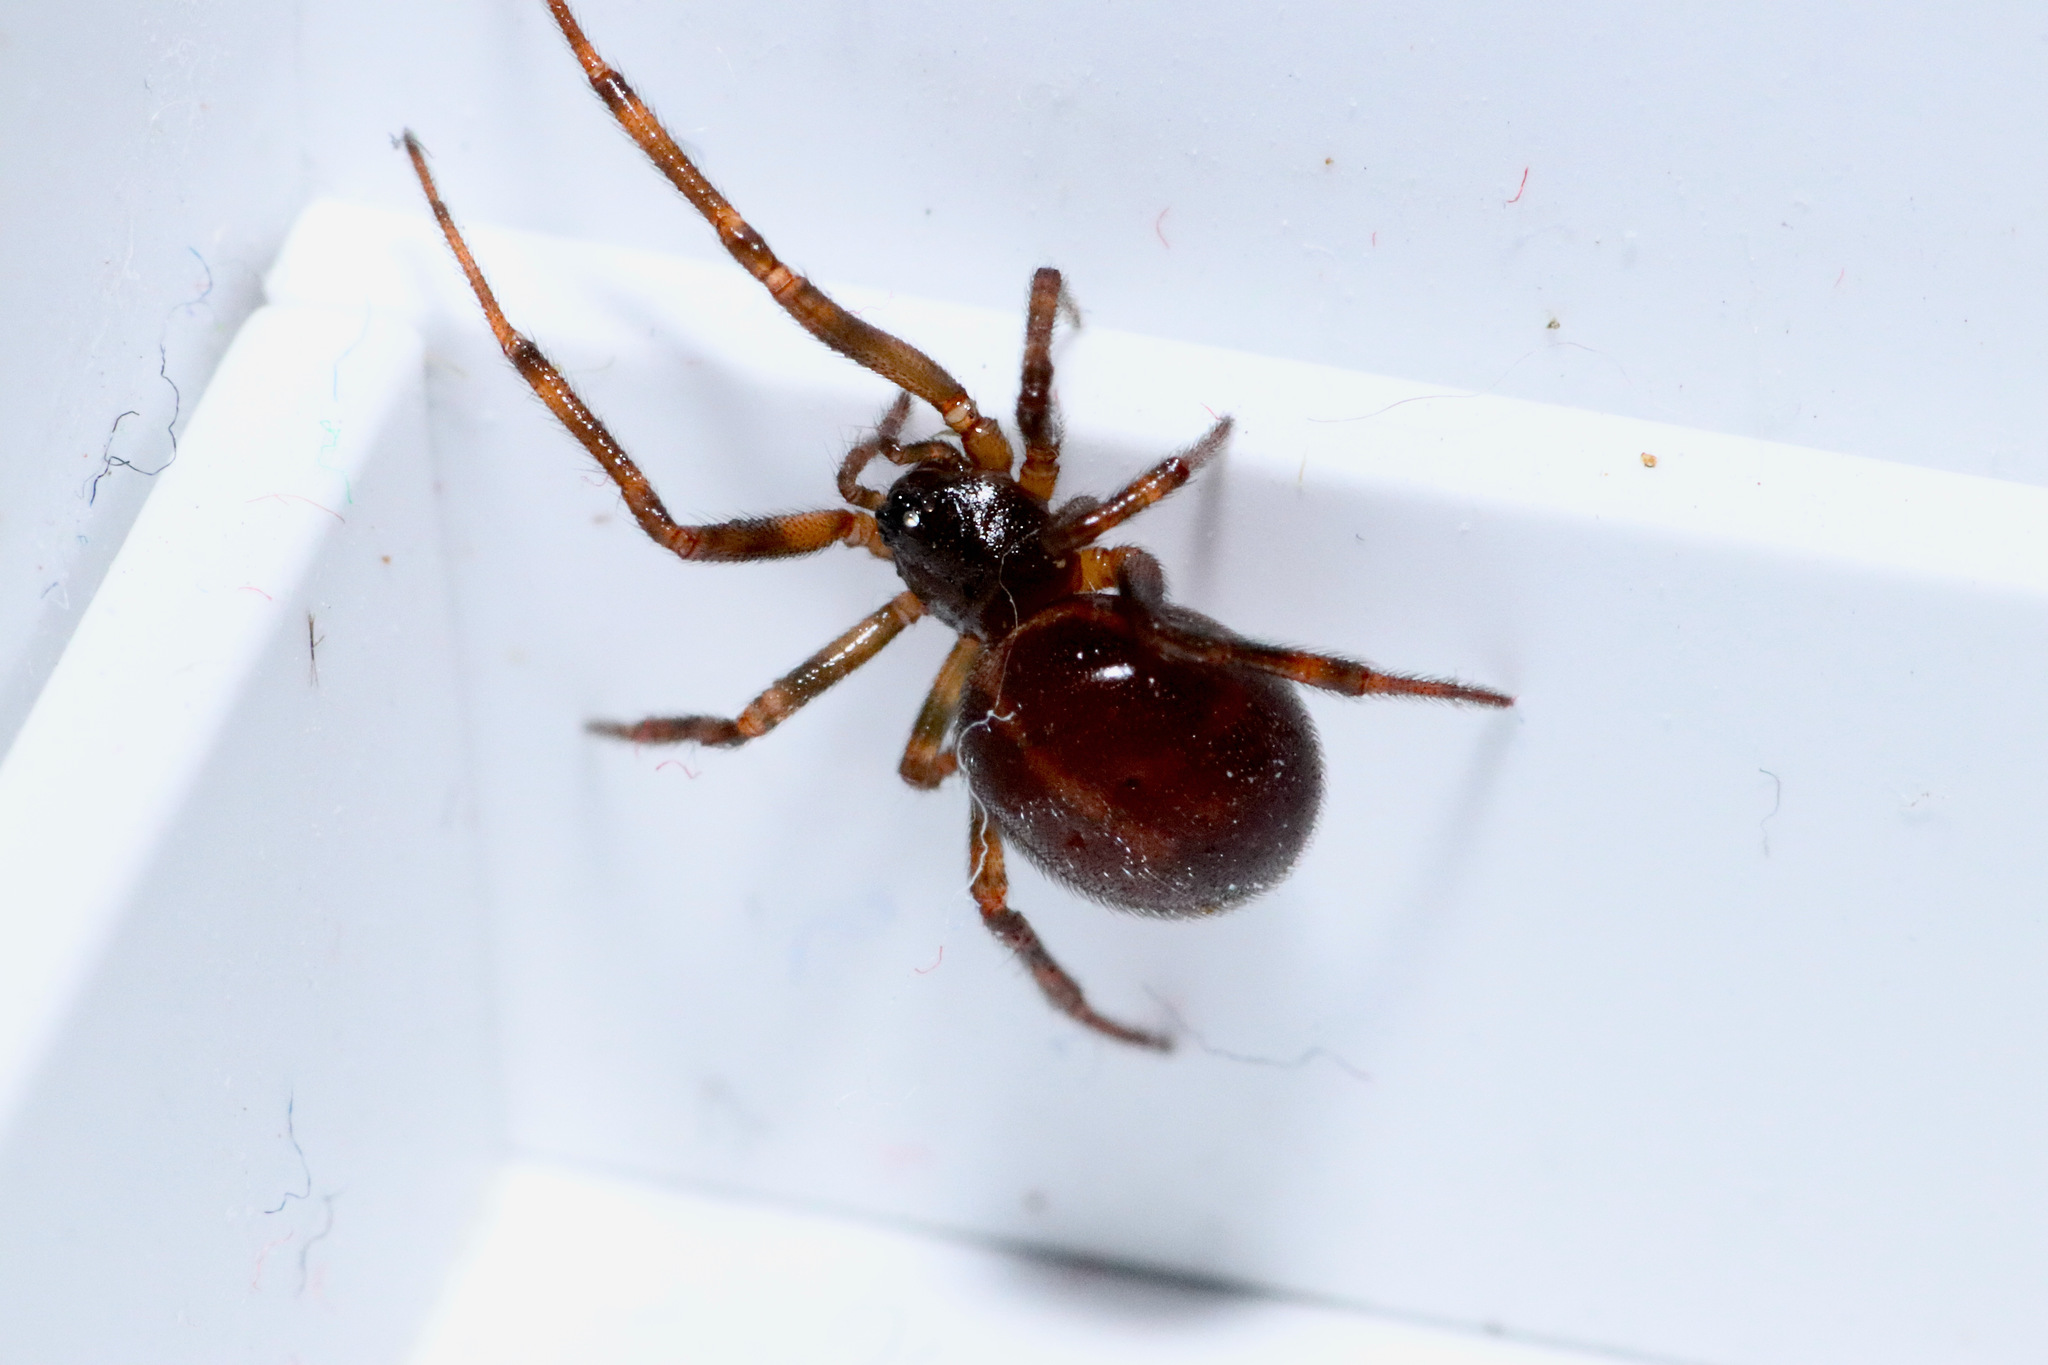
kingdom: Animalia
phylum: Arthropoda
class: Arachnida
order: Araneae
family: Theridiidae
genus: Steatoda
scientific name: Steatoda borealis
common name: Boreal combfoot
